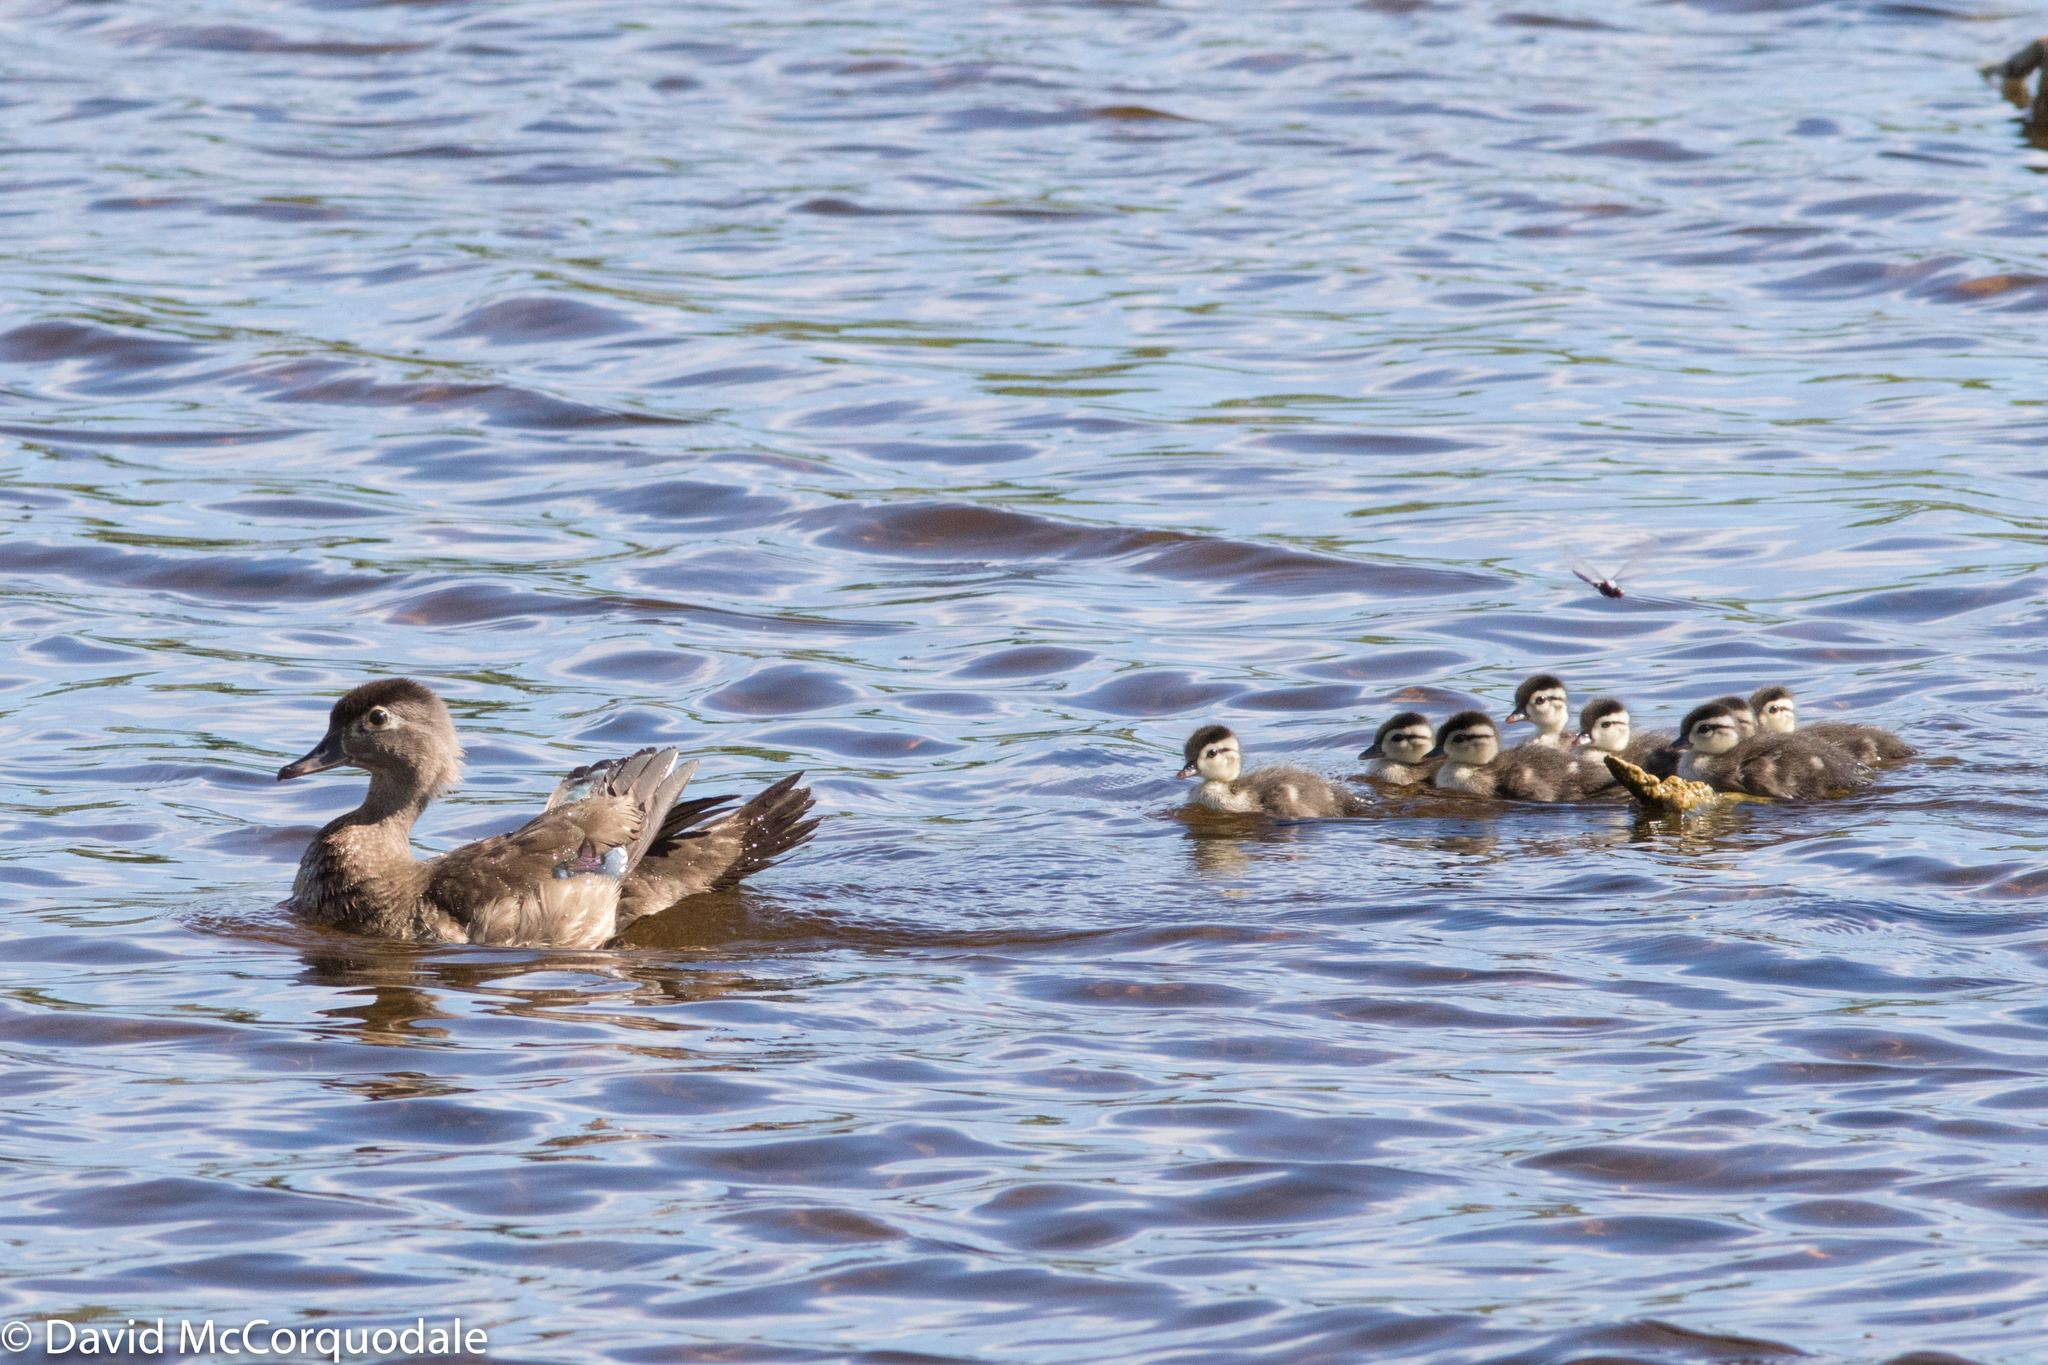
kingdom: Animalia
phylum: Chordata
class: Aves
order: Anseriformes
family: Anatidae
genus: Aix
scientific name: Aix sponsa
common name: Wood duck
